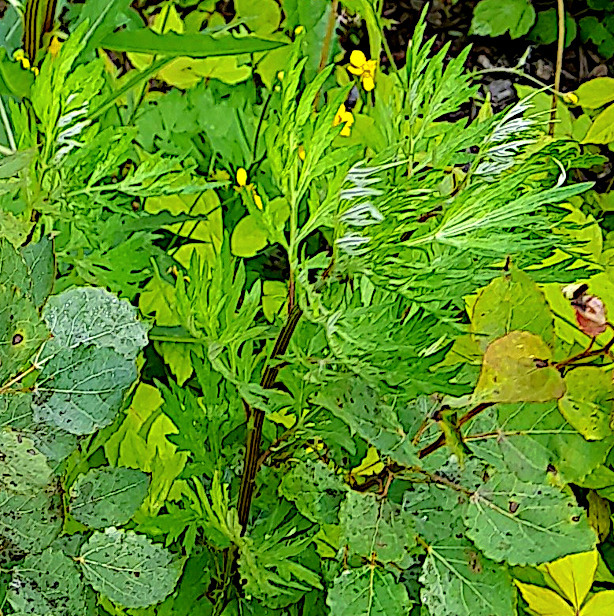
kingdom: Plantae
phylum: Tracheophyta
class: Magnoliopsida
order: Asterales
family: Asteraceae
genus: Artemisia
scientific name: Artemisia vulgaris
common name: Mugwort
